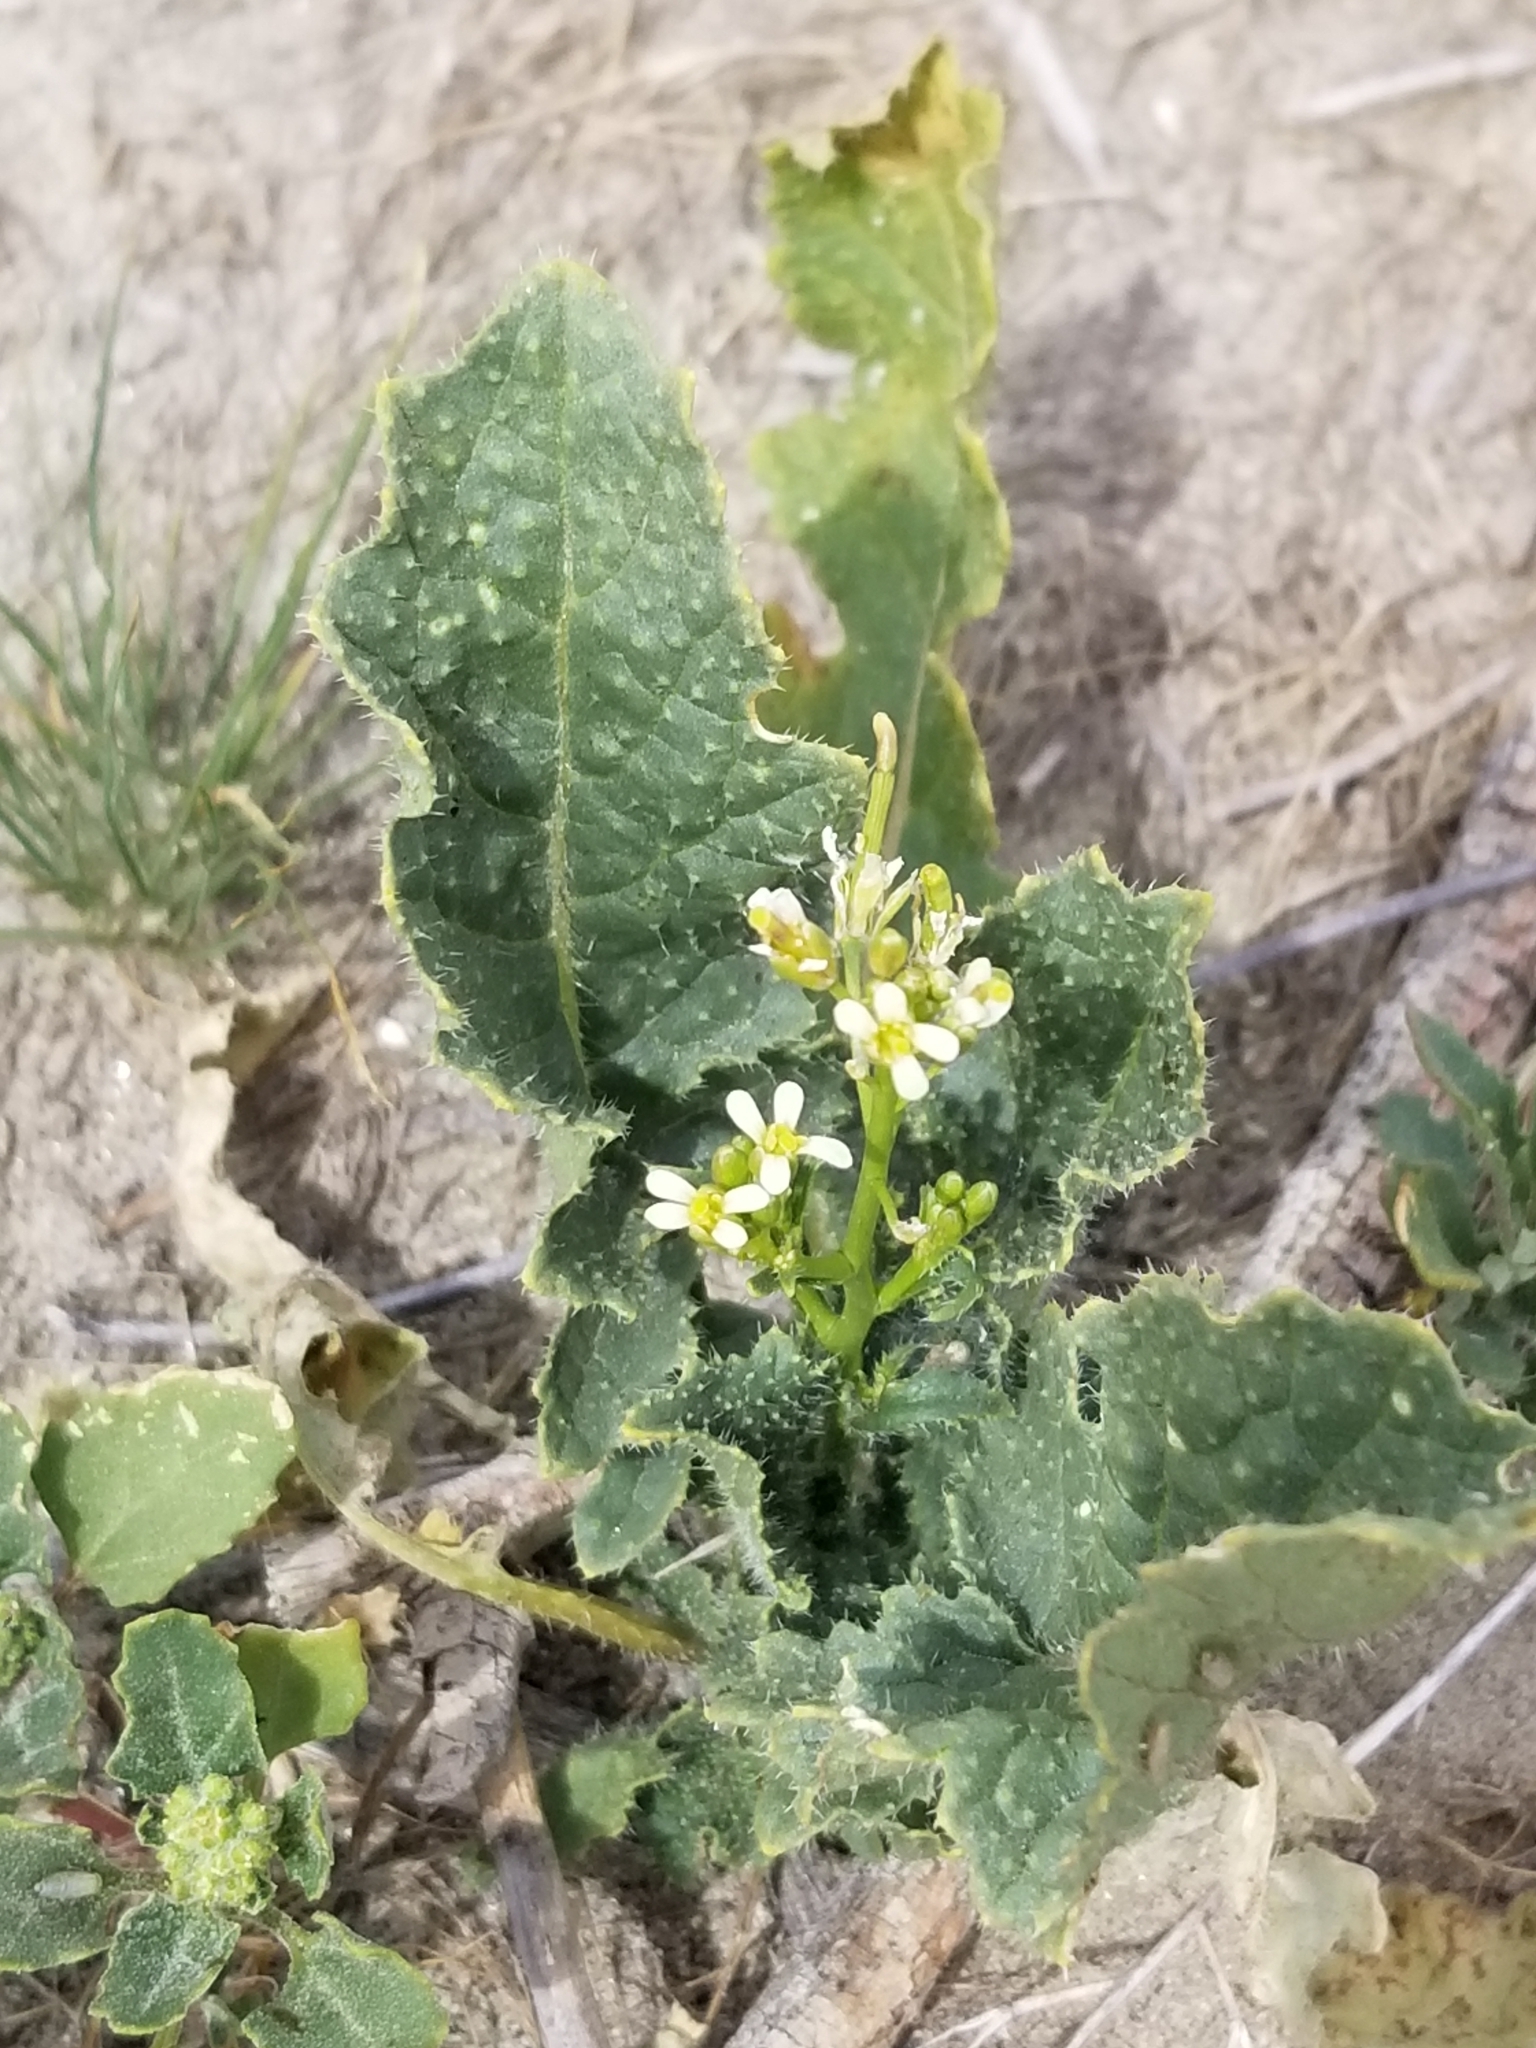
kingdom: Plantae
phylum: Tracheophyta
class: Magnoliopsida
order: Brassicales
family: Brassicaceae
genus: Brassica
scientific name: Brassica tournefortii
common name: Pale cabbage
